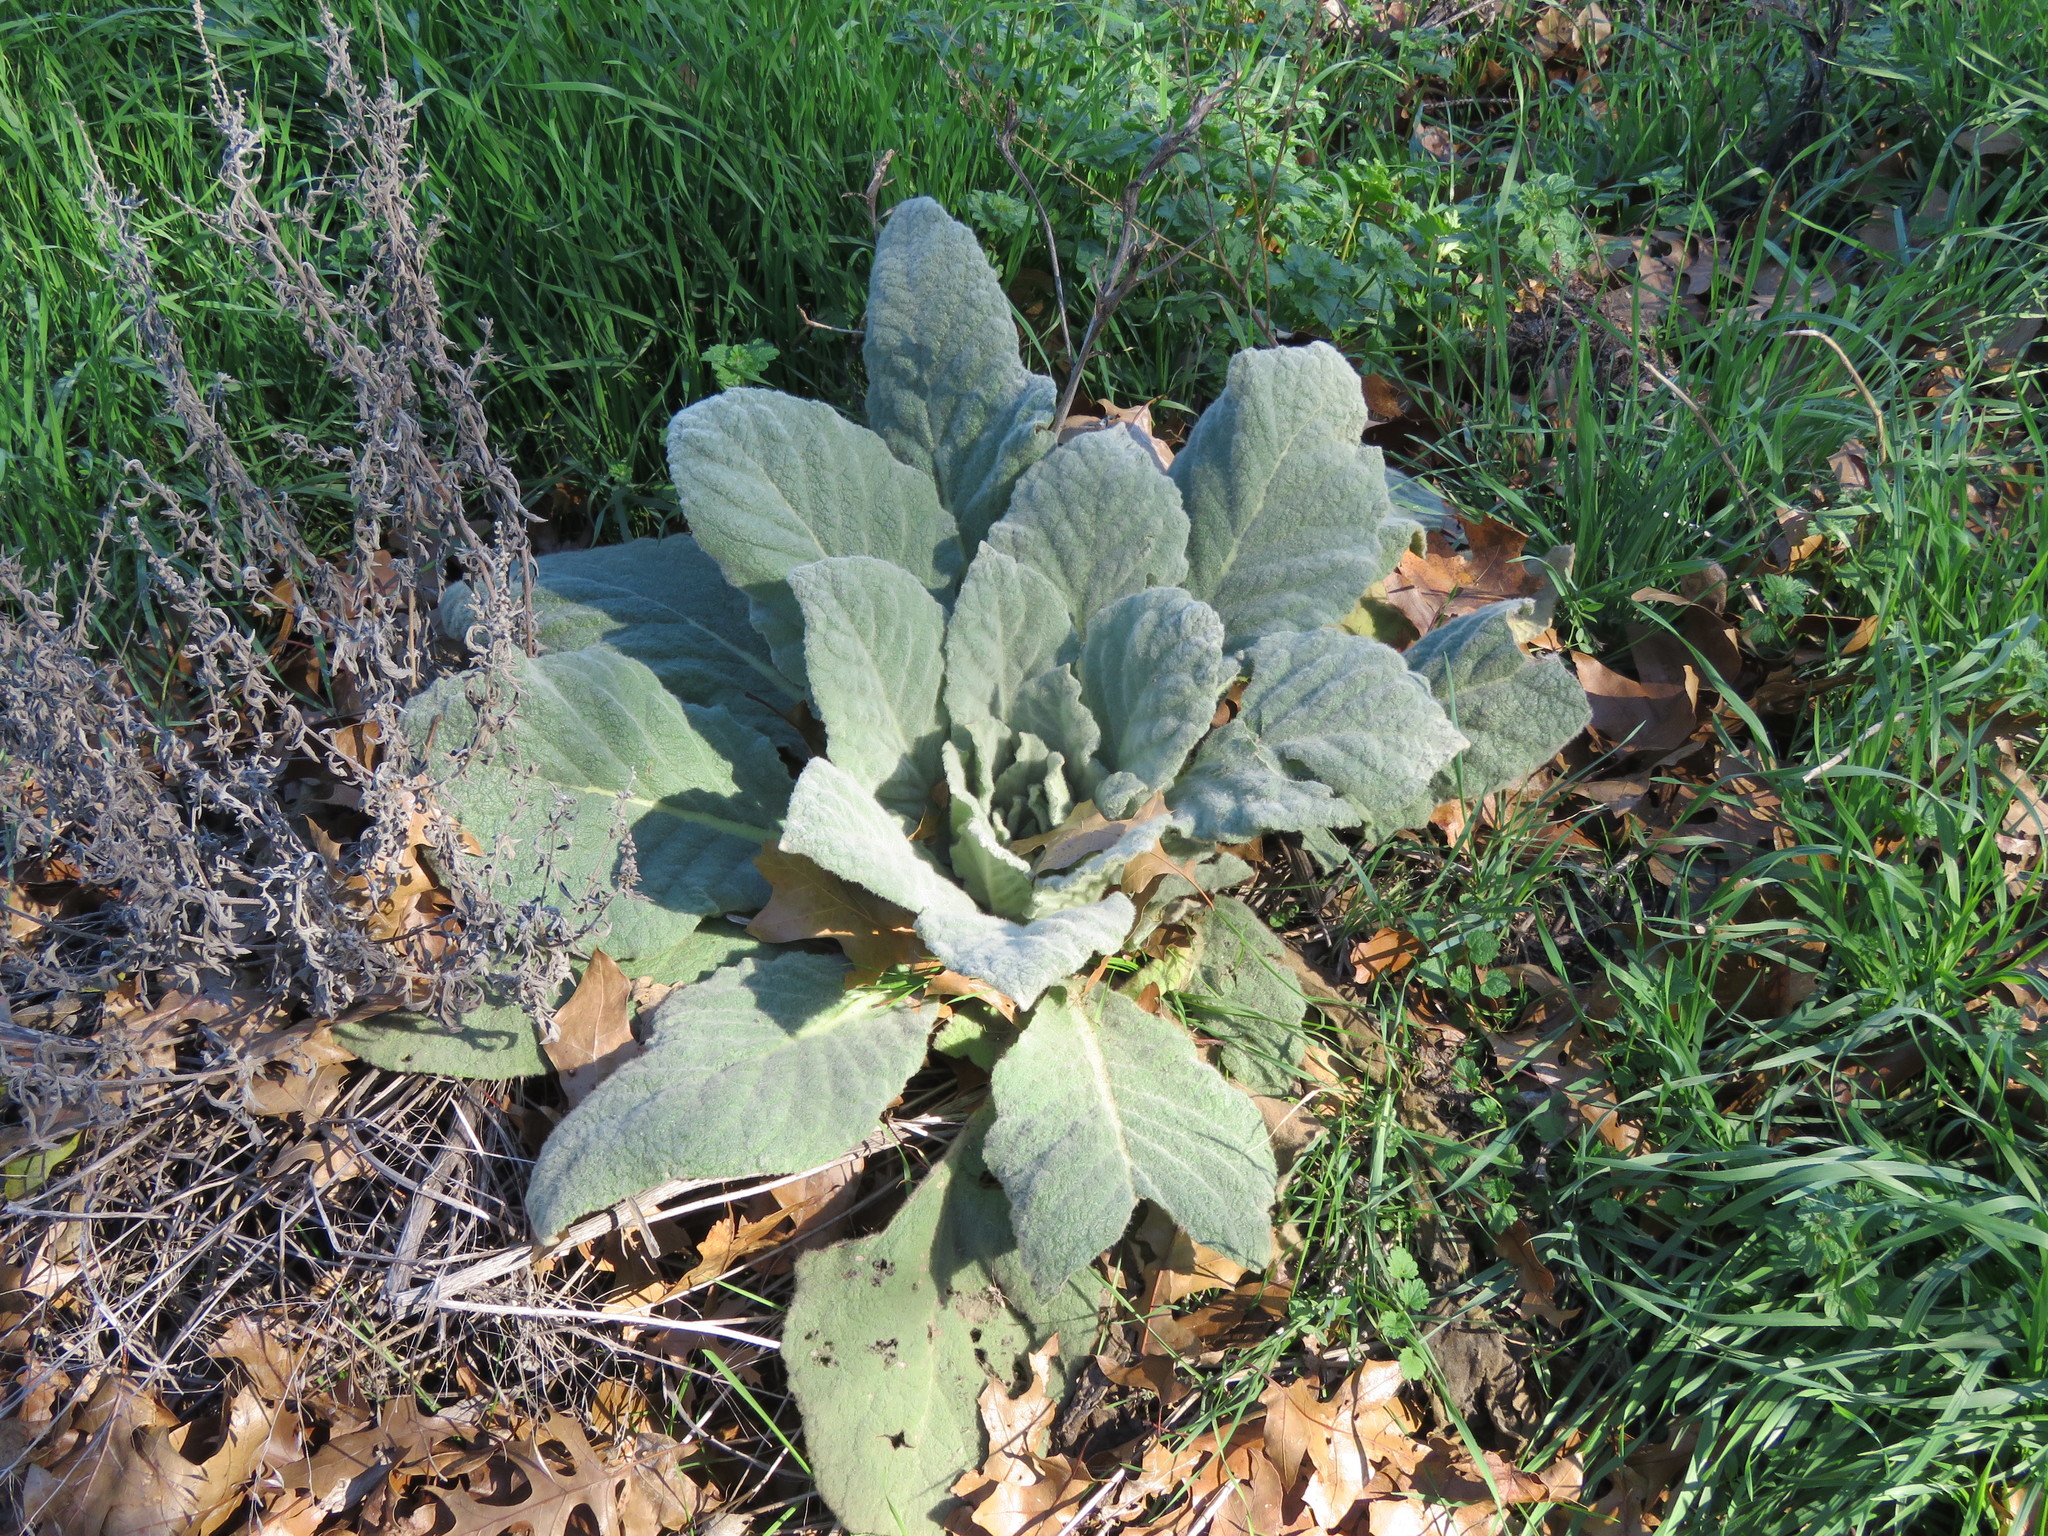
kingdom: Plantae
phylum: Tracheophyta
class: Magnoliopsida
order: Lamiales
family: Scrophulariaceae
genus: Verbascum
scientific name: Verbascum thapsus
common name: Common mullein
